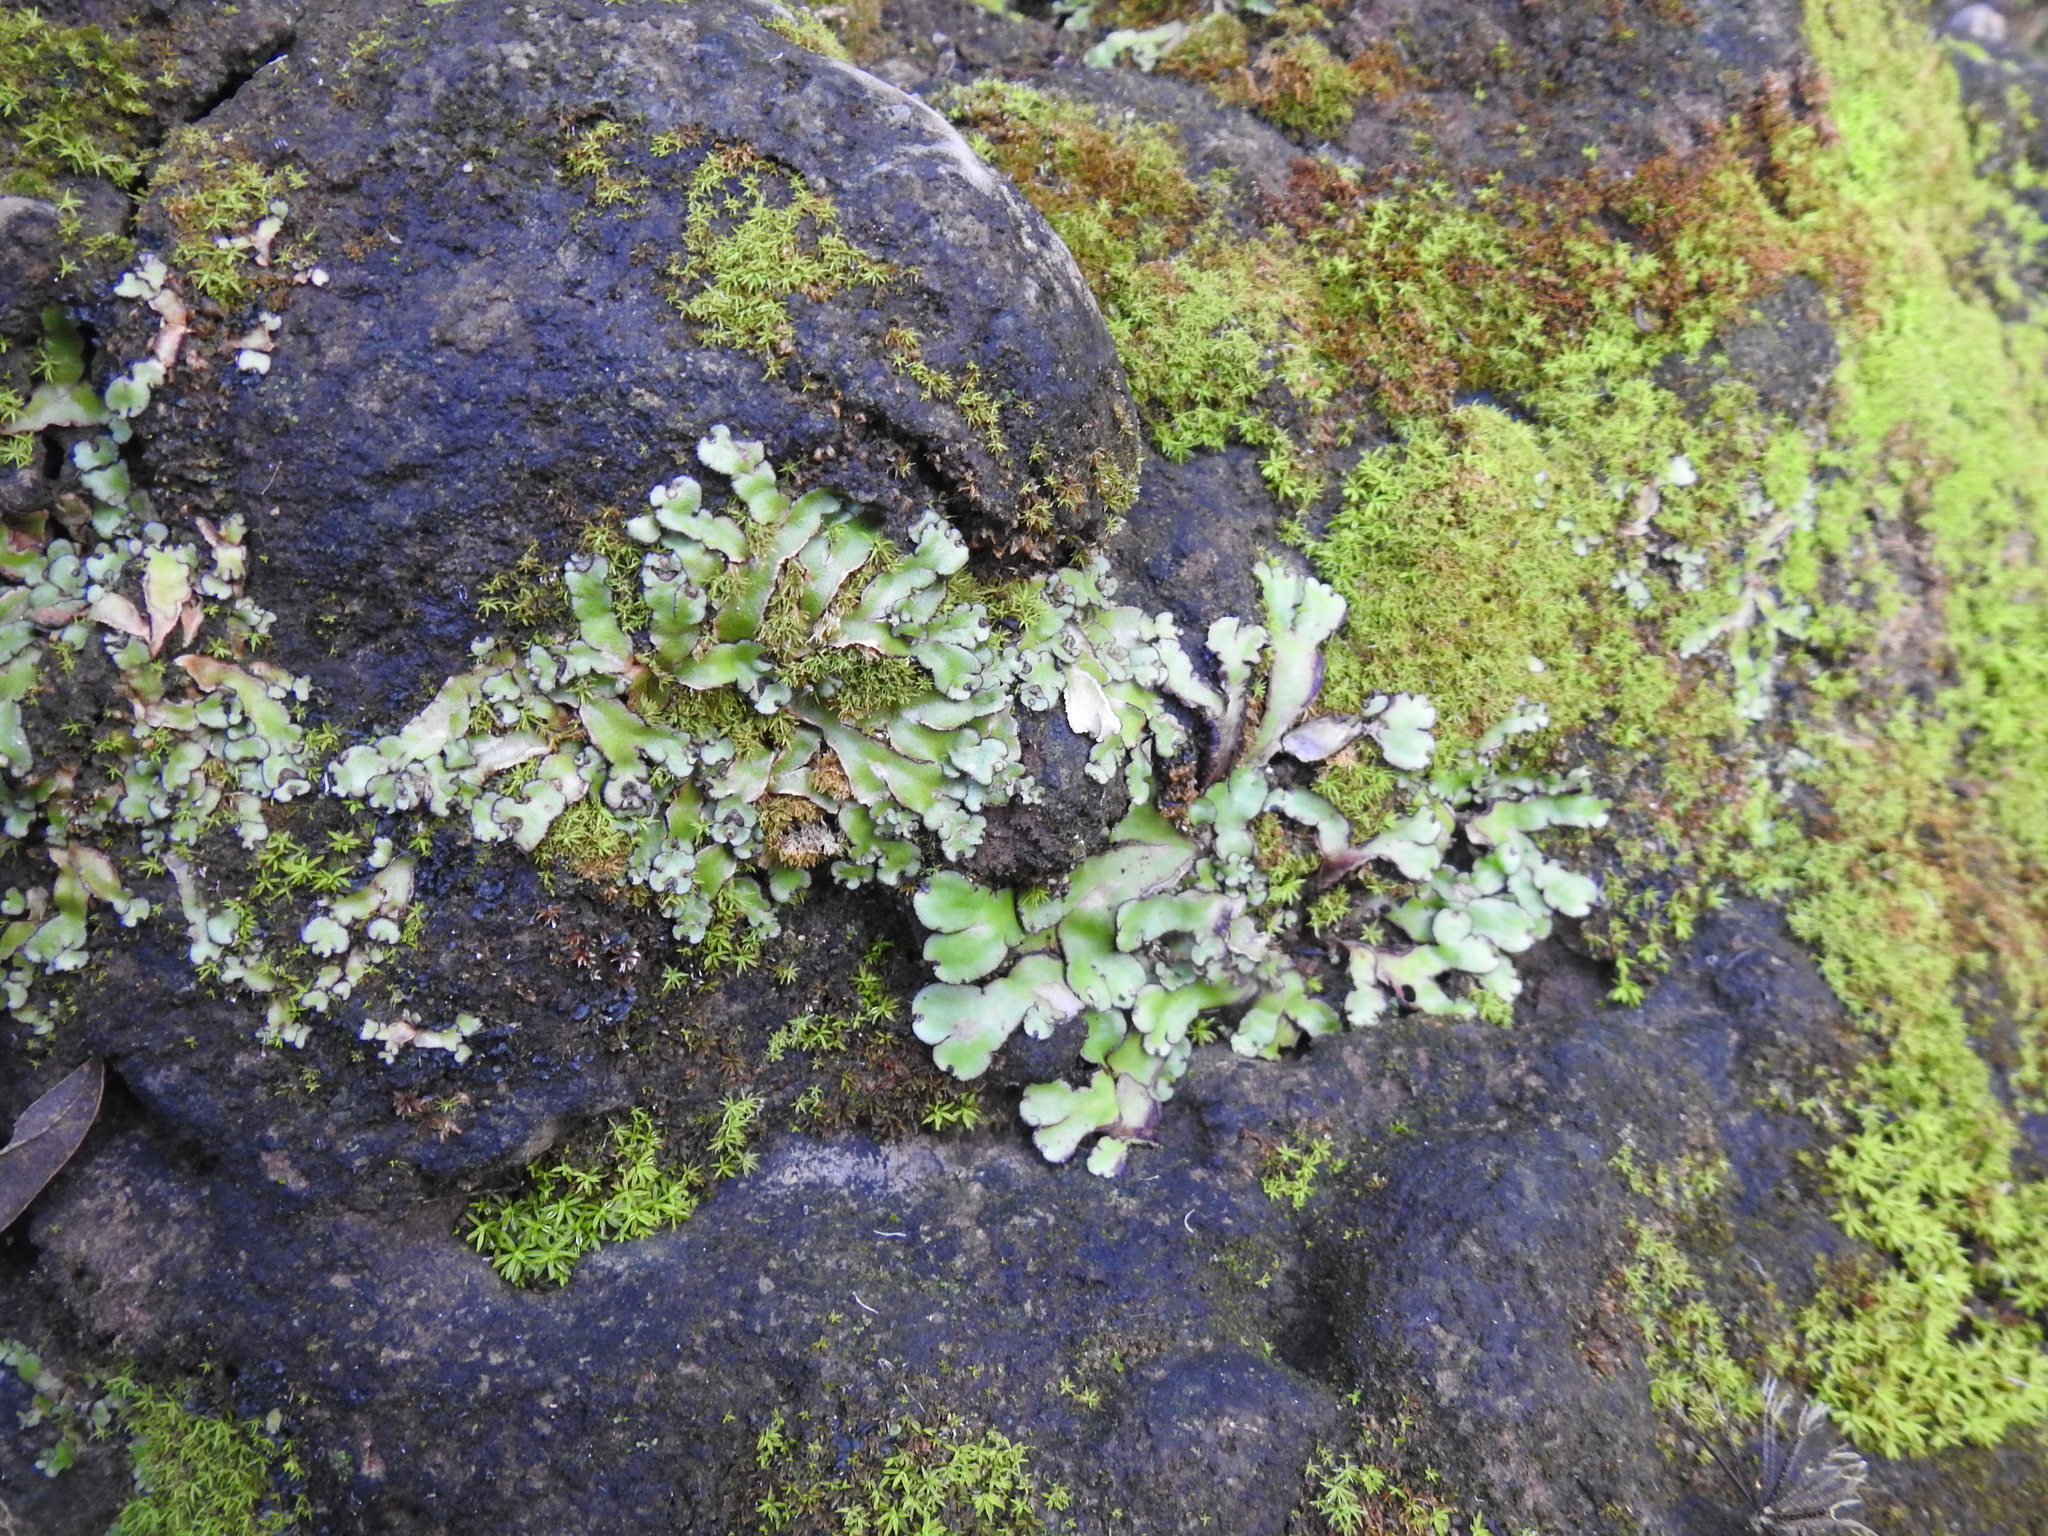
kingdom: Plantae
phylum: Marchantiophyta
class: Marchantiopsida
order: Marchantiales
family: Aytoniaceae
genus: Plagiochasma
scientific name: Plagiochasma rupestre
